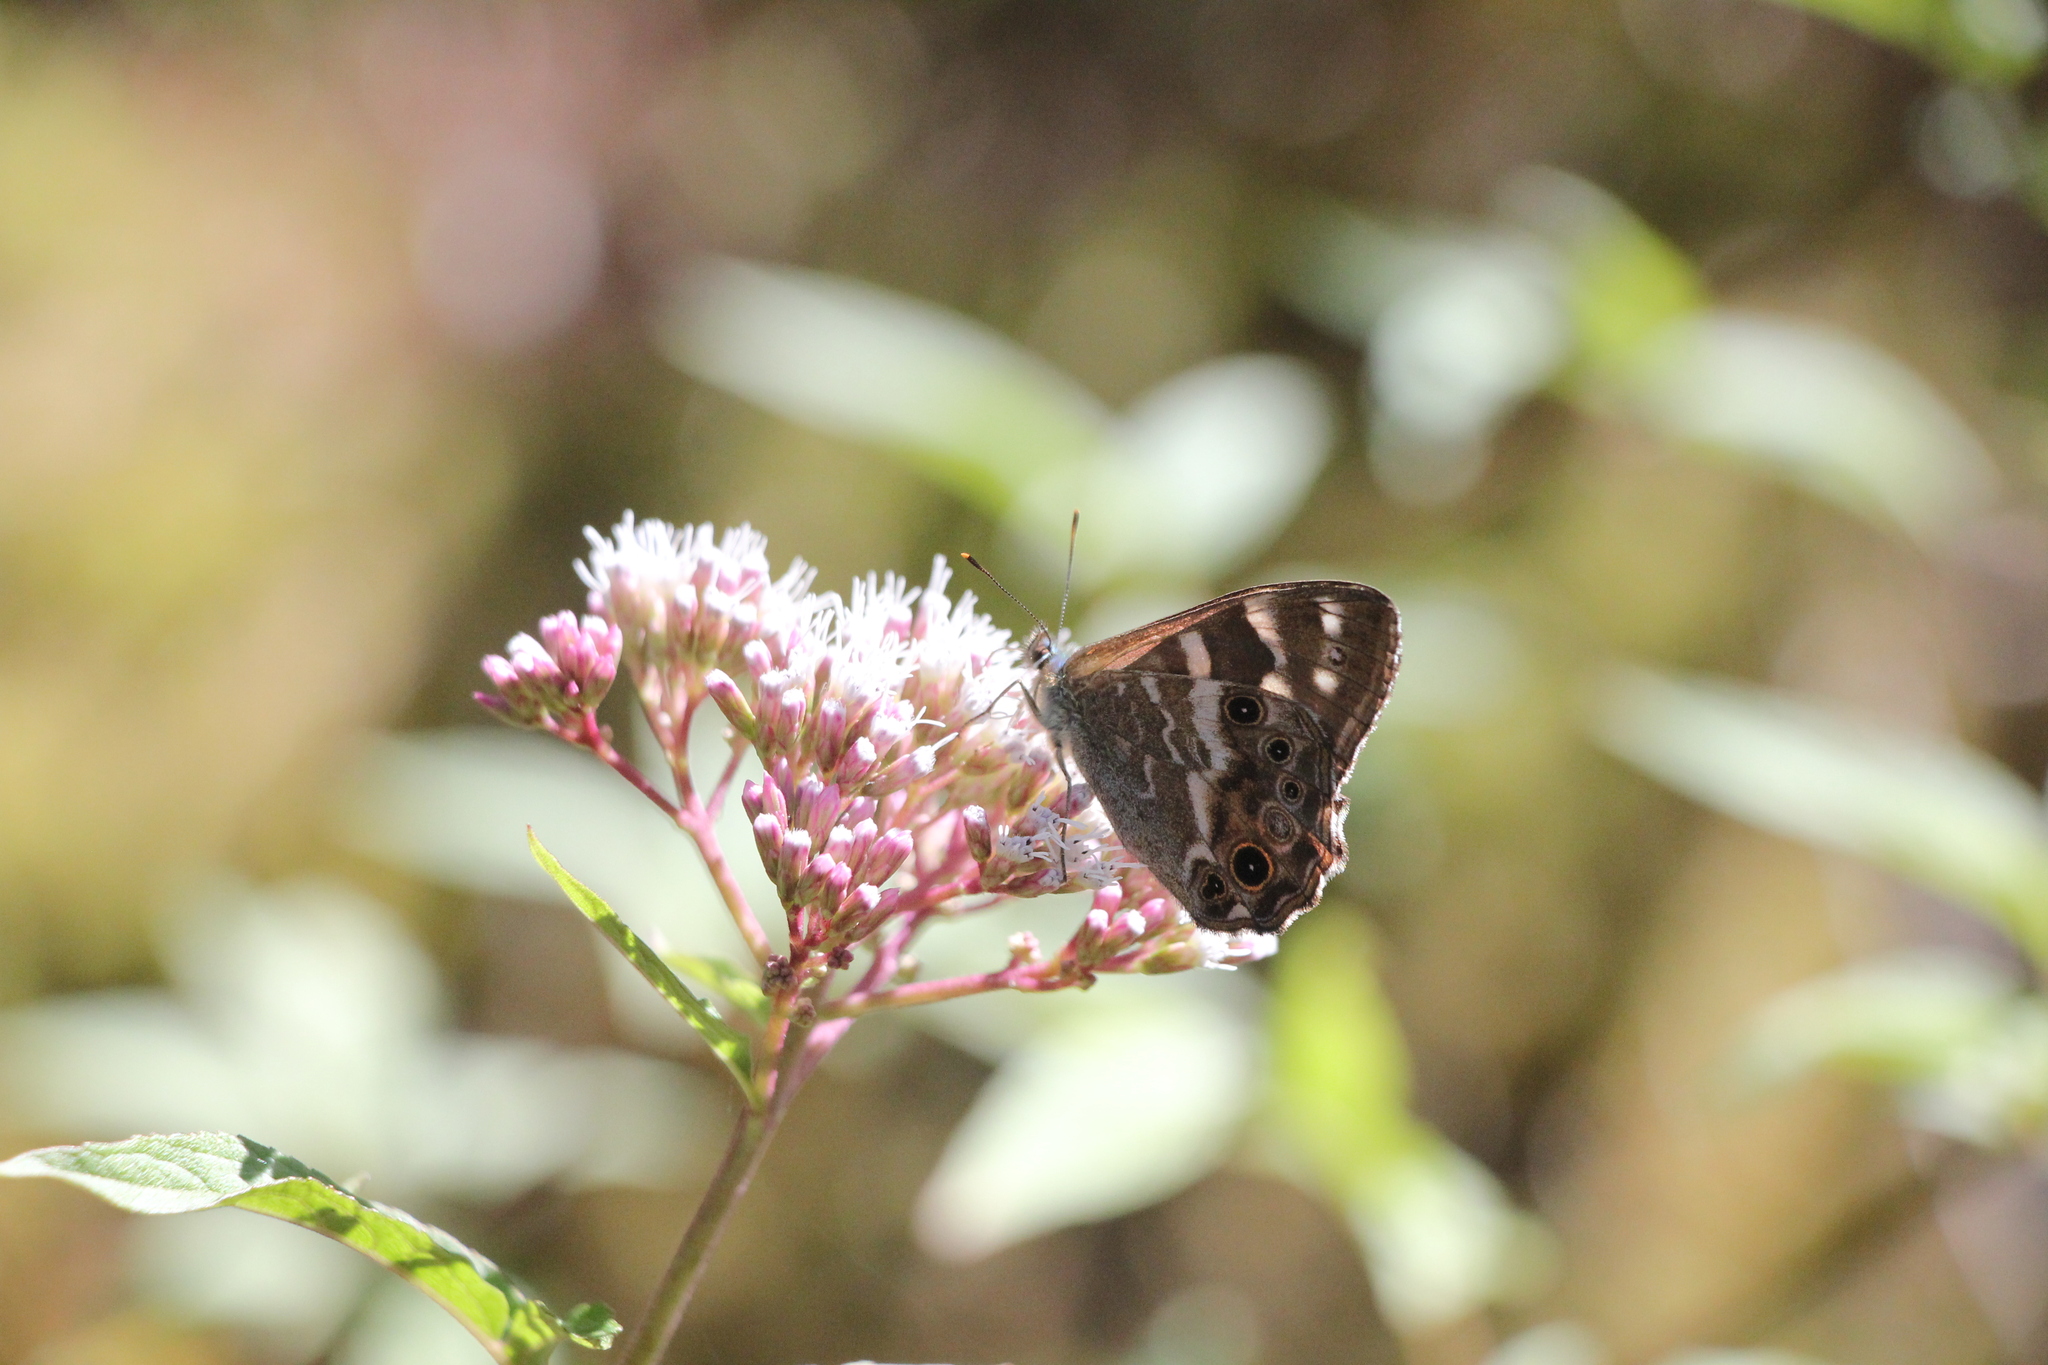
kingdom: Animalia
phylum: Arthropoda
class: Insecta
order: Lepidoptera
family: Nymphalidae
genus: Lethe
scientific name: Lethe europa
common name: Bamboo treebrown
